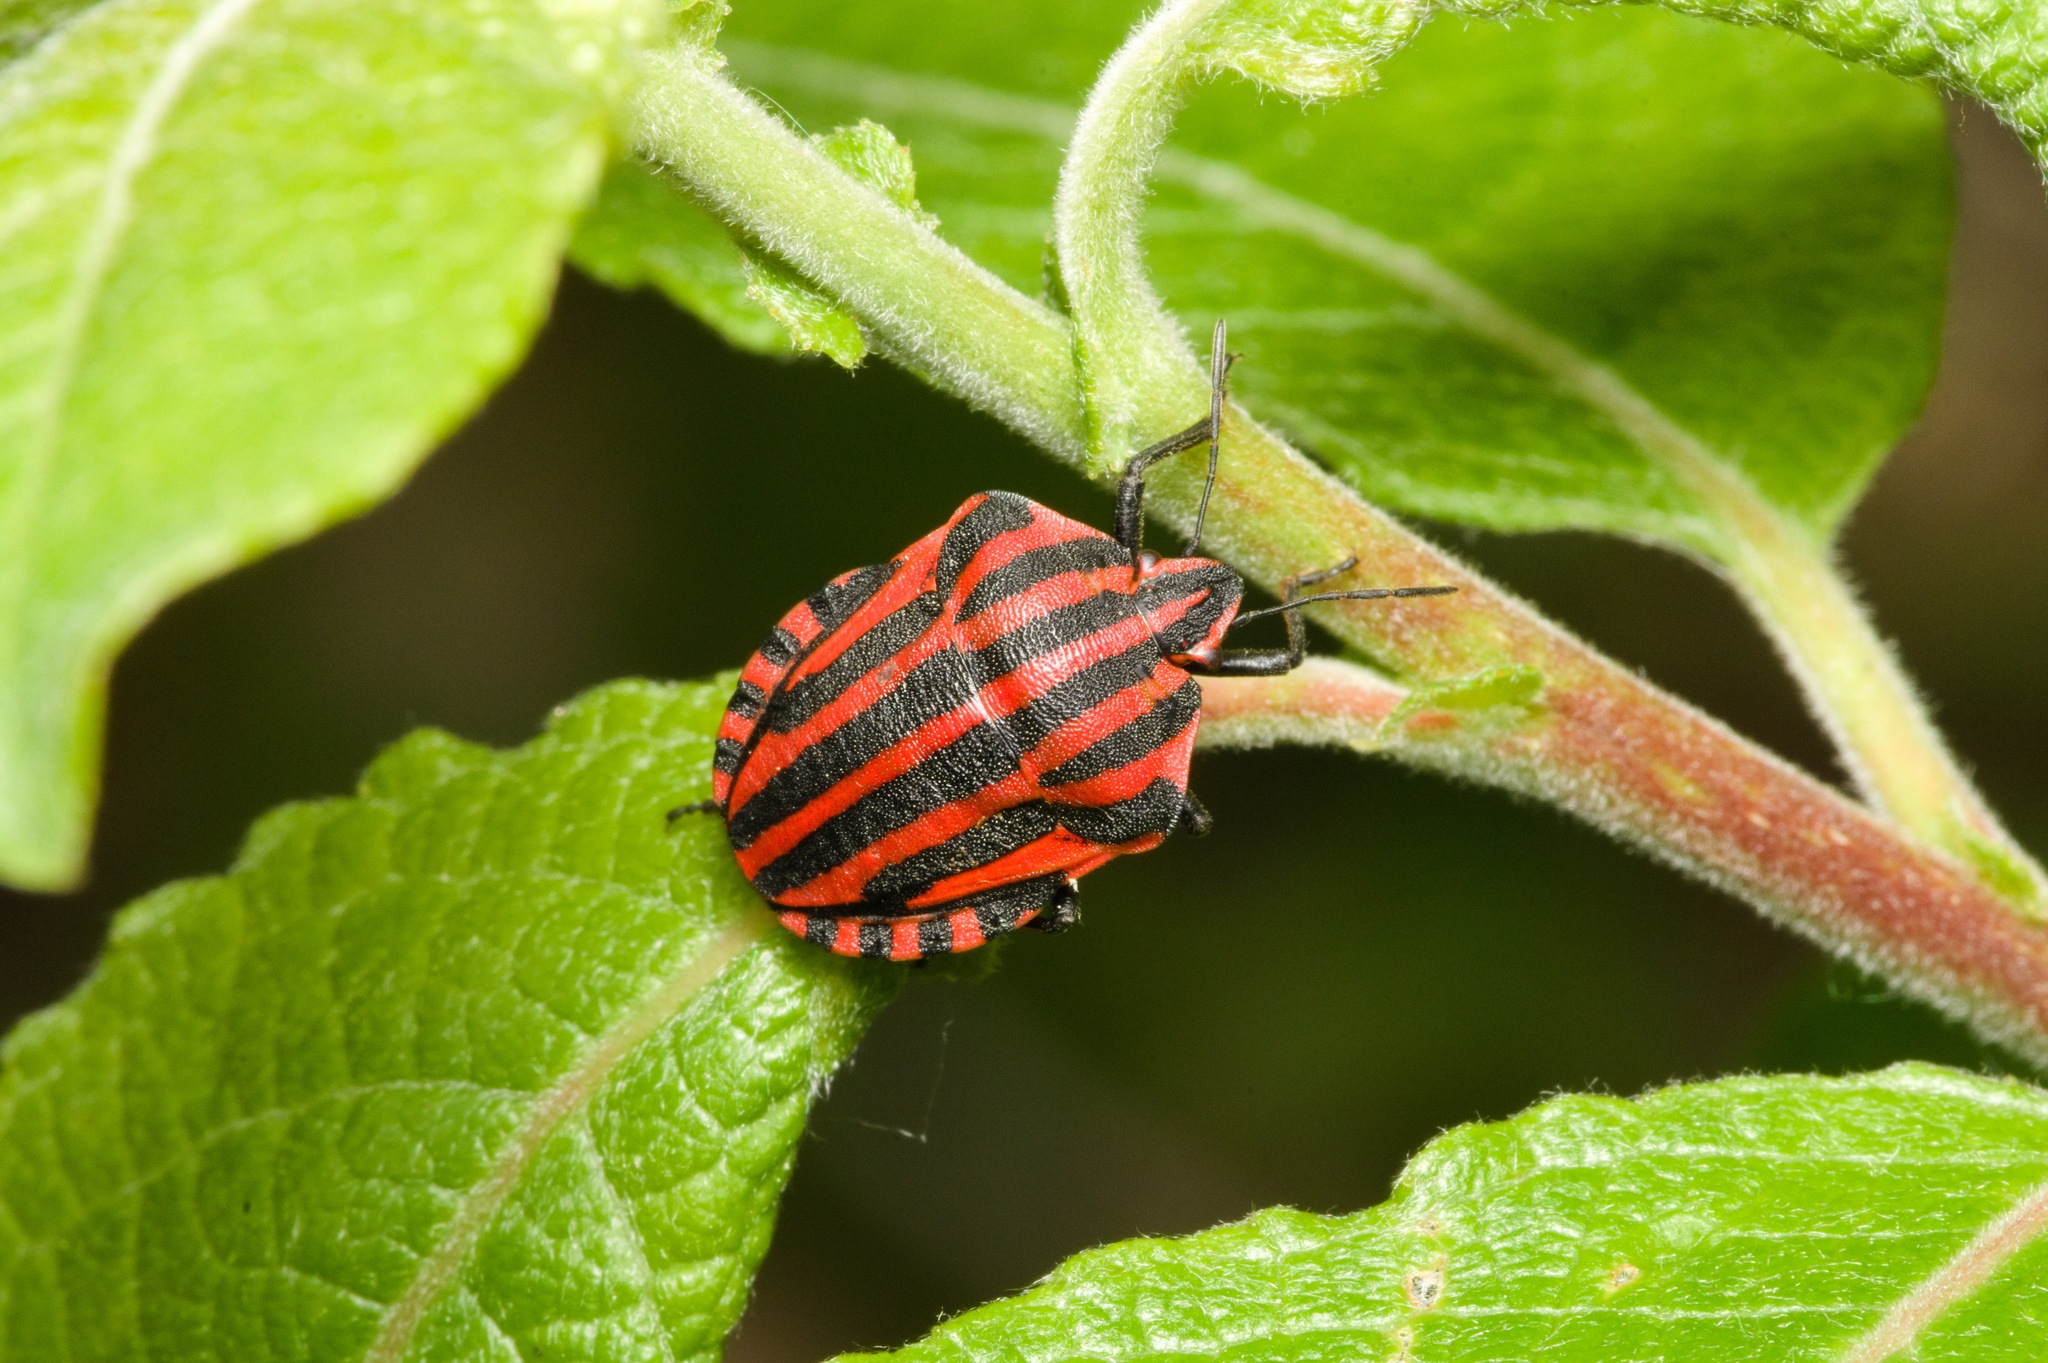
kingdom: Animalia
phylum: Arthropoda
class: Insecta
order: Hemiptera
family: Pentatomidae
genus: Graphosoma
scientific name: Graphosoma italicum
